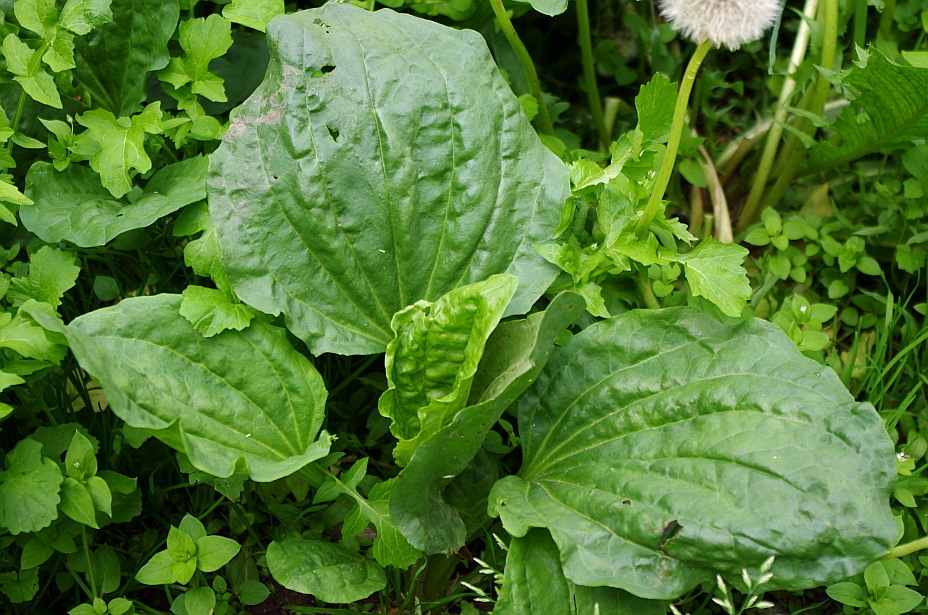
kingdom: Plantae
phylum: Tracheophyta
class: Magnoliopsida
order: Lamiales
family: Plantaginaceae
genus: Plantago
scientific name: Plantago major
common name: Common plantain
